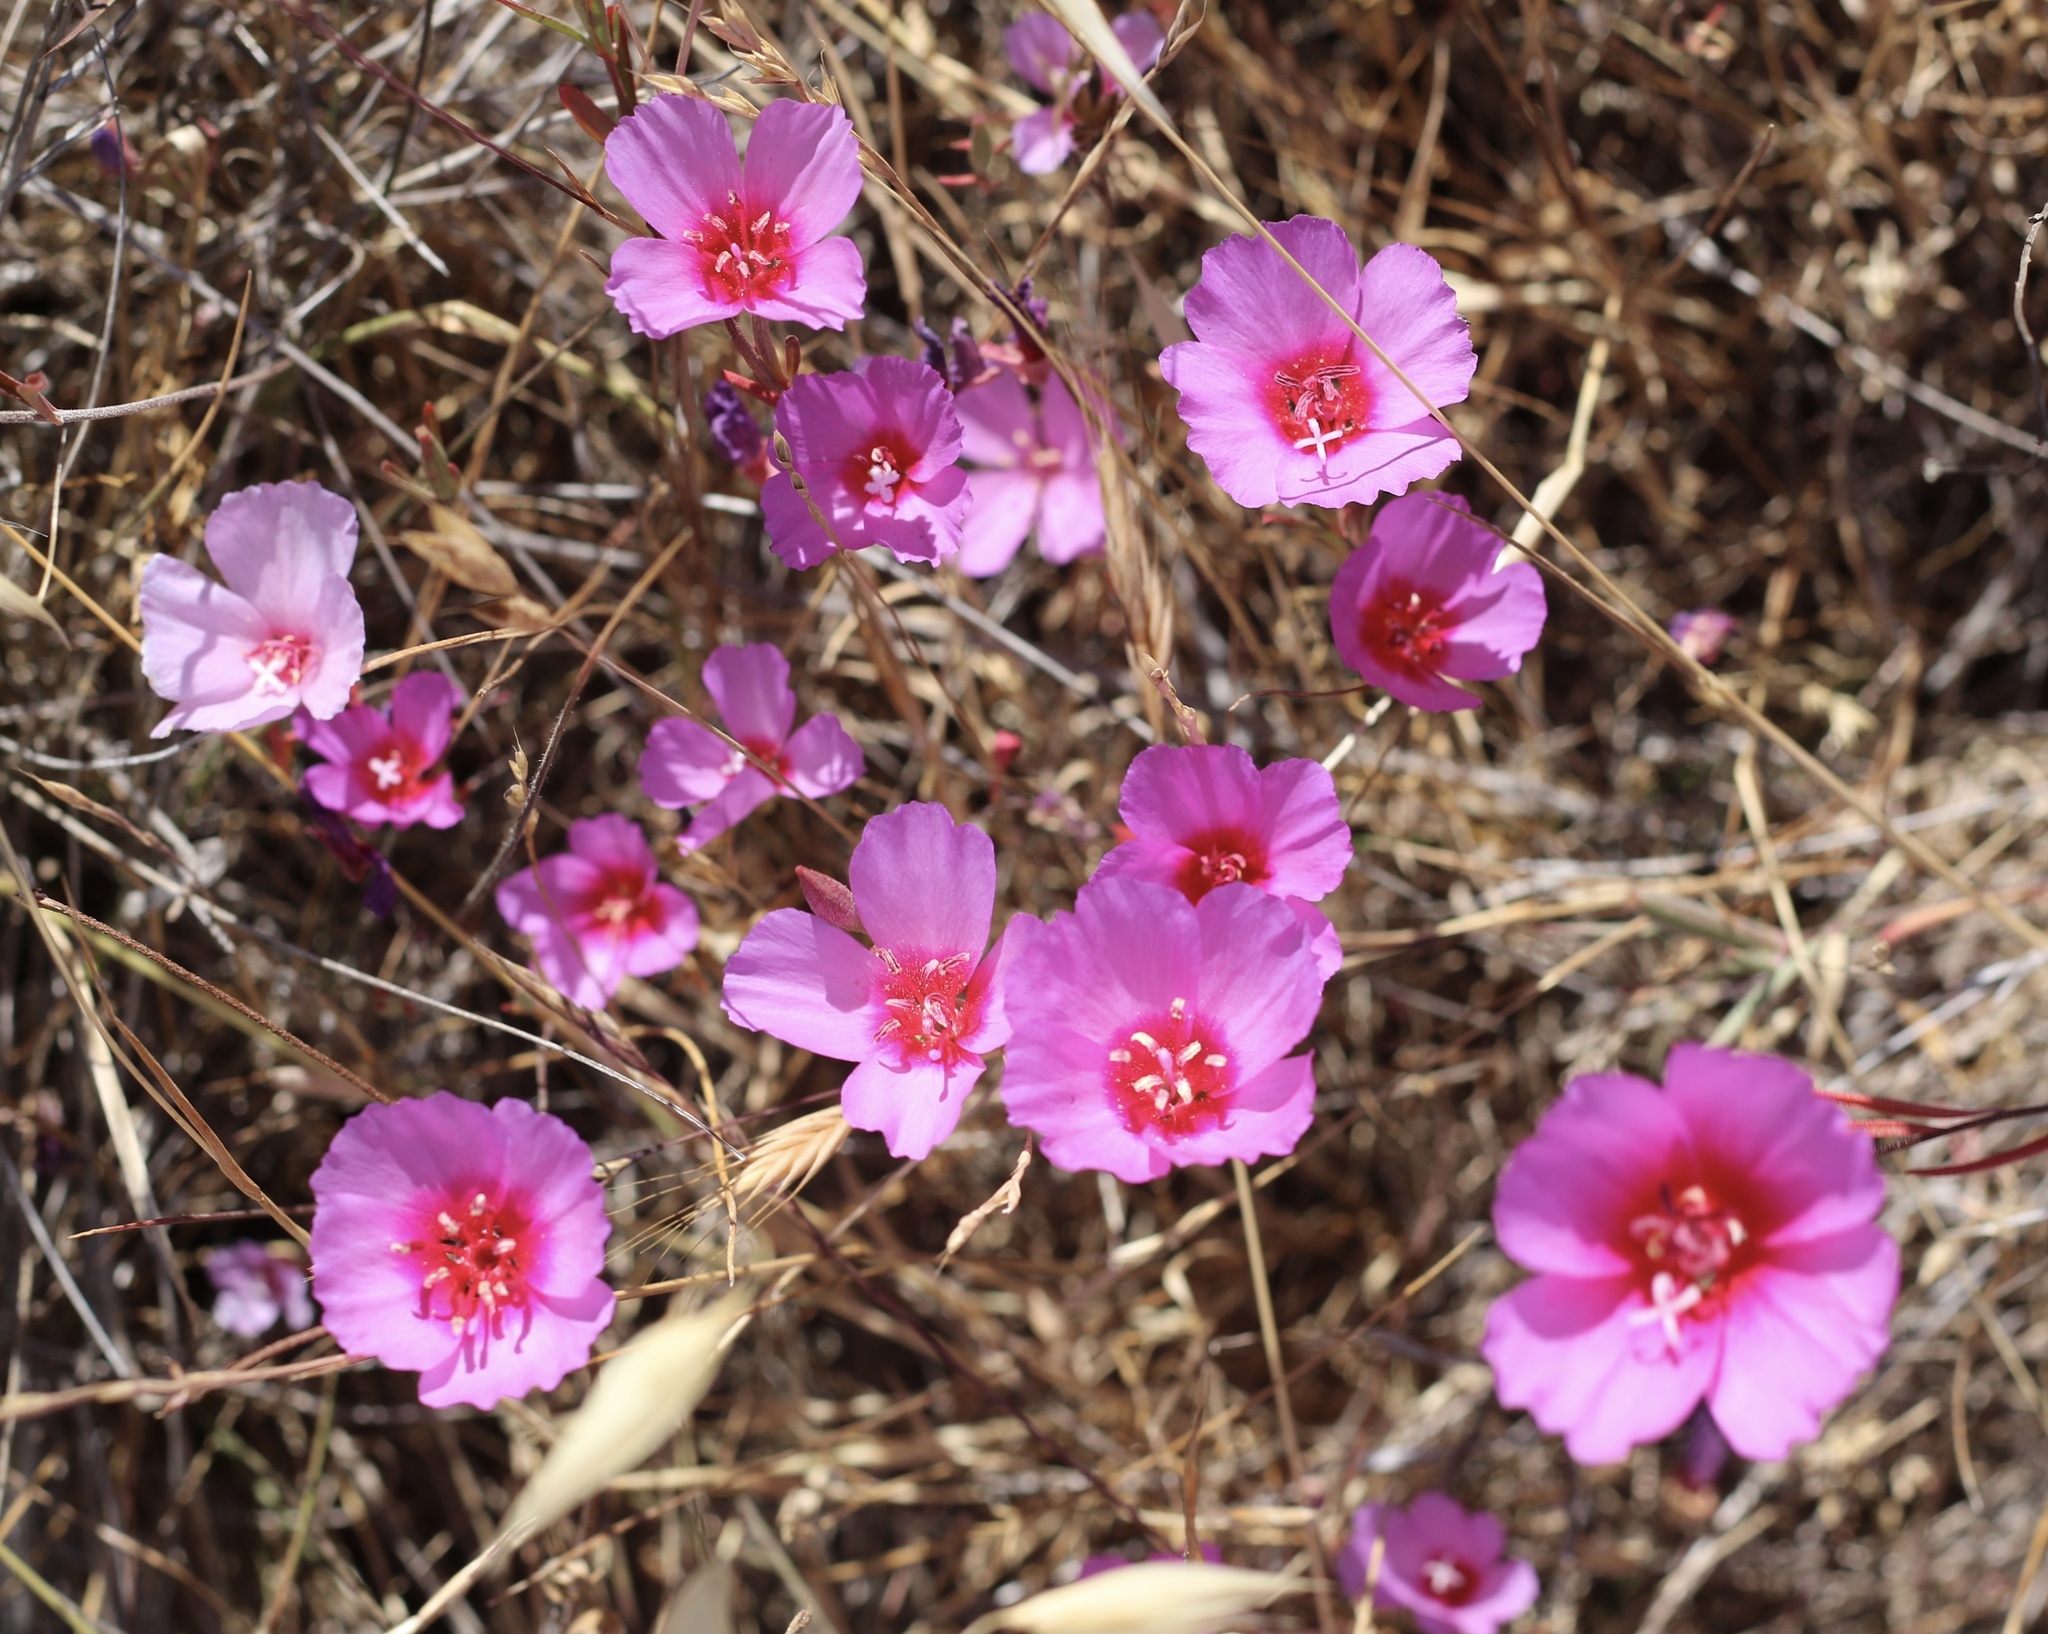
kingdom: Plantae
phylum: Tracheophyta
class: Magnoliopsida
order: Myrtales
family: Onagraceae
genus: Clarkia
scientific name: Clarkia rubicunda
